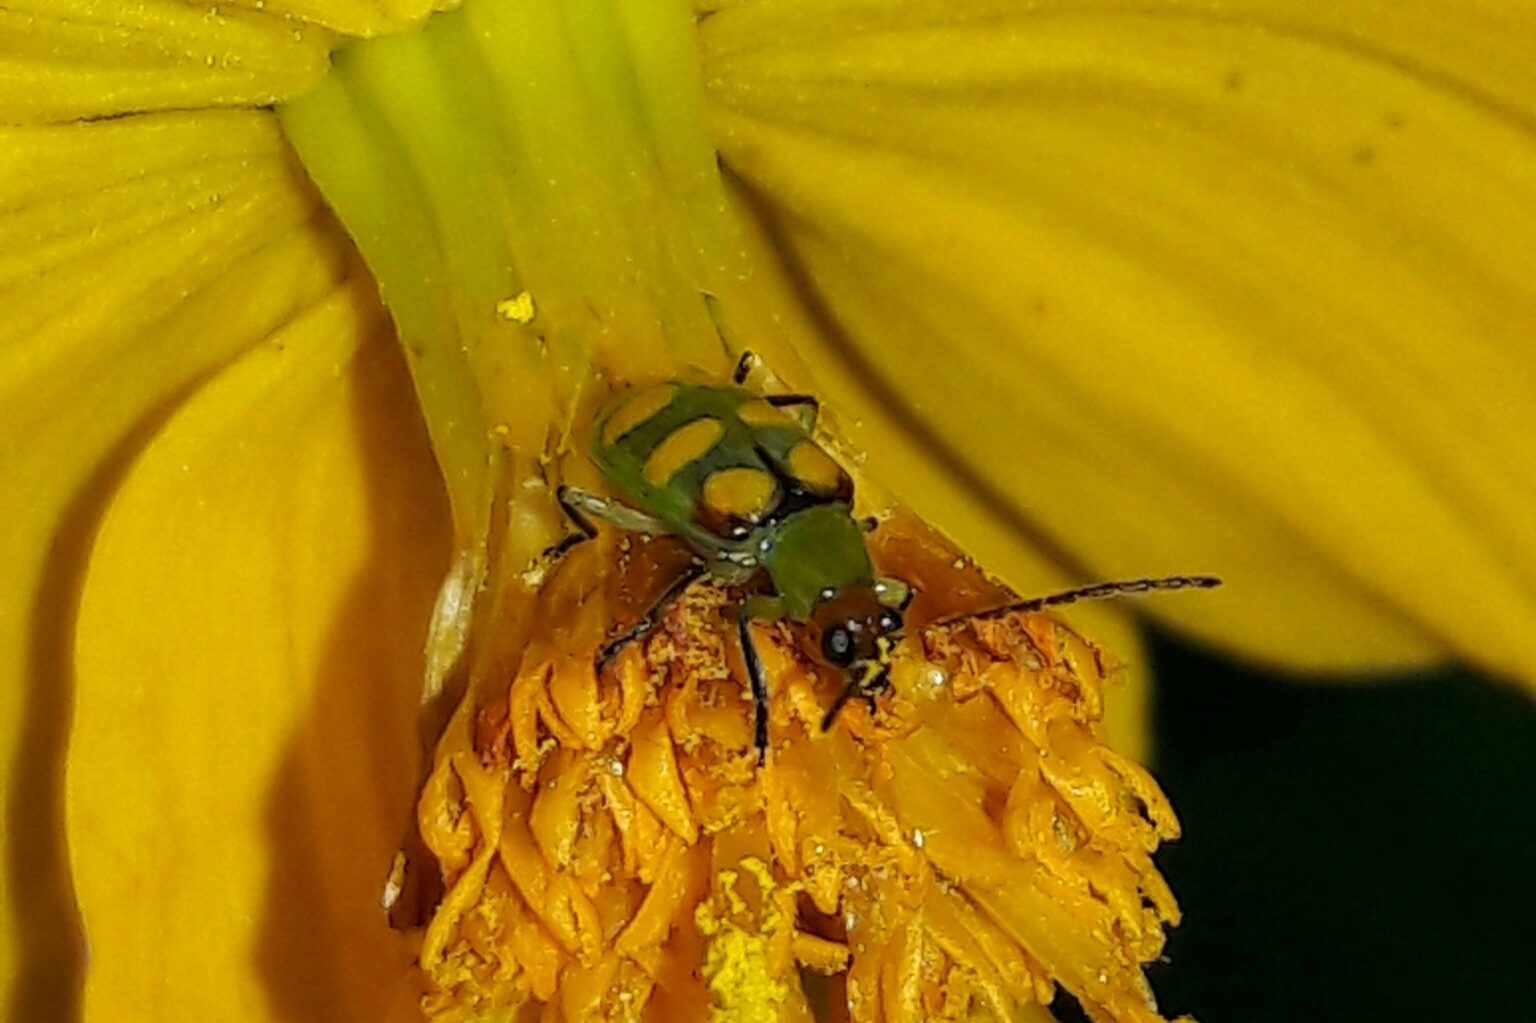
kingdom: Animalia
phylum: Arthropoda
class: Insecta
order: Coleoptera
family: Chrysomelidae
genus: Diabrotica
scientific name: Diabrotica speciosa
